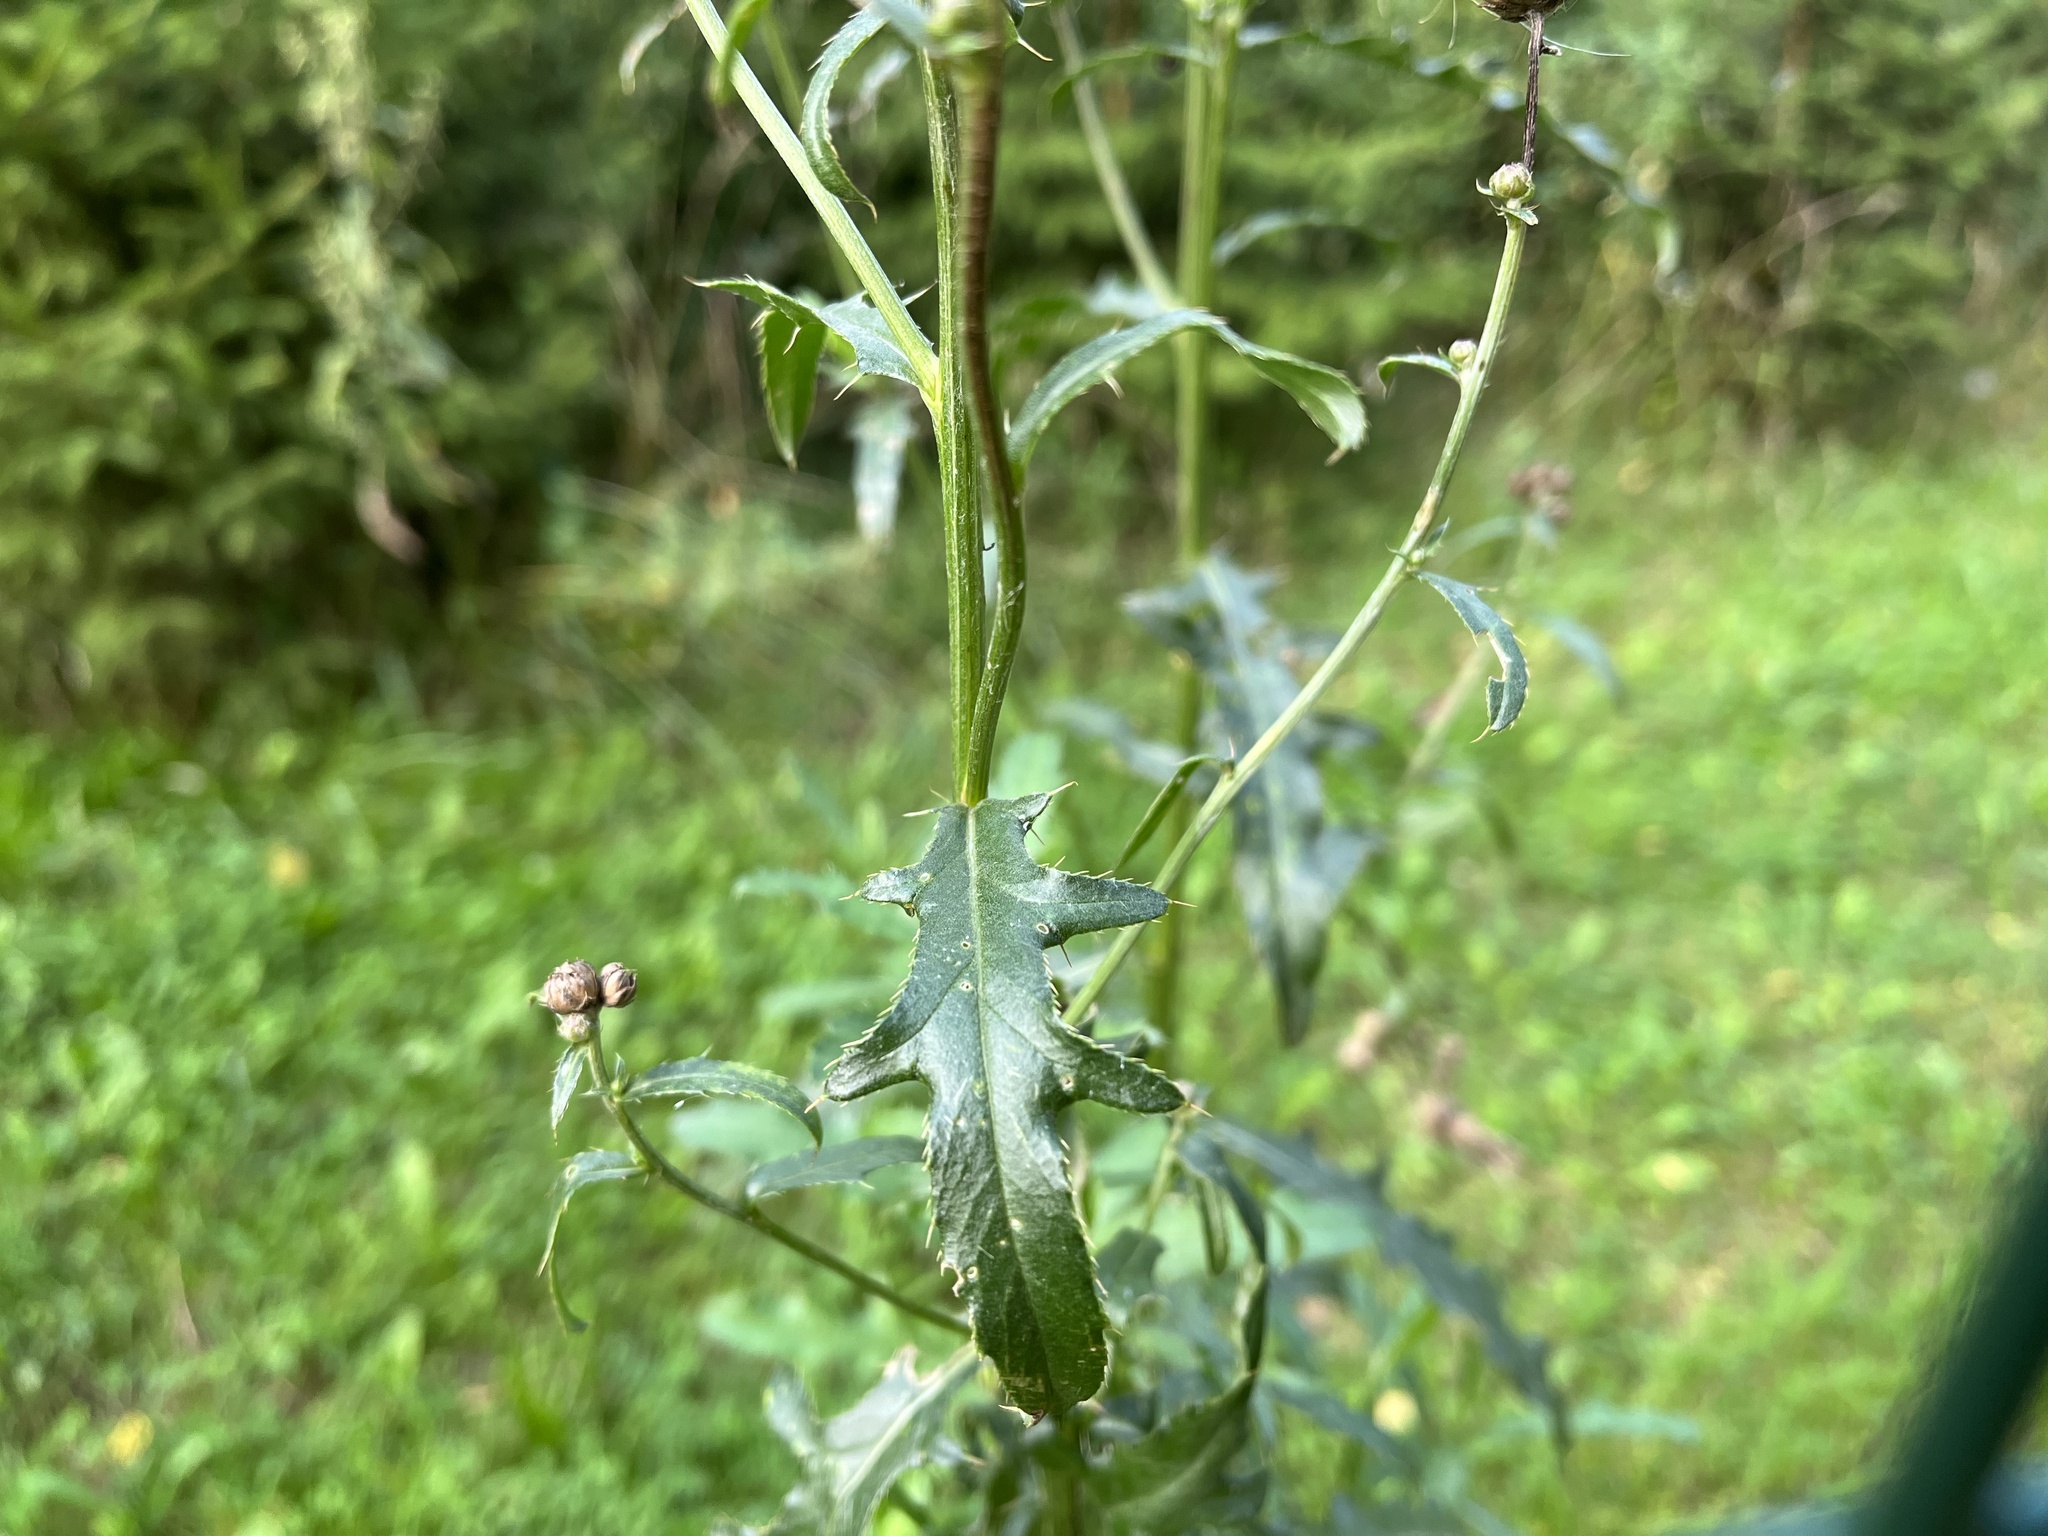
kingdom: Plantae
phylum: Tracheophyta
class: Magnoliopsida
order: Asterales
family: Asteraceae
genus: Cirsium
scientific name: Cirsium arvense
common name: Creeping thistle
